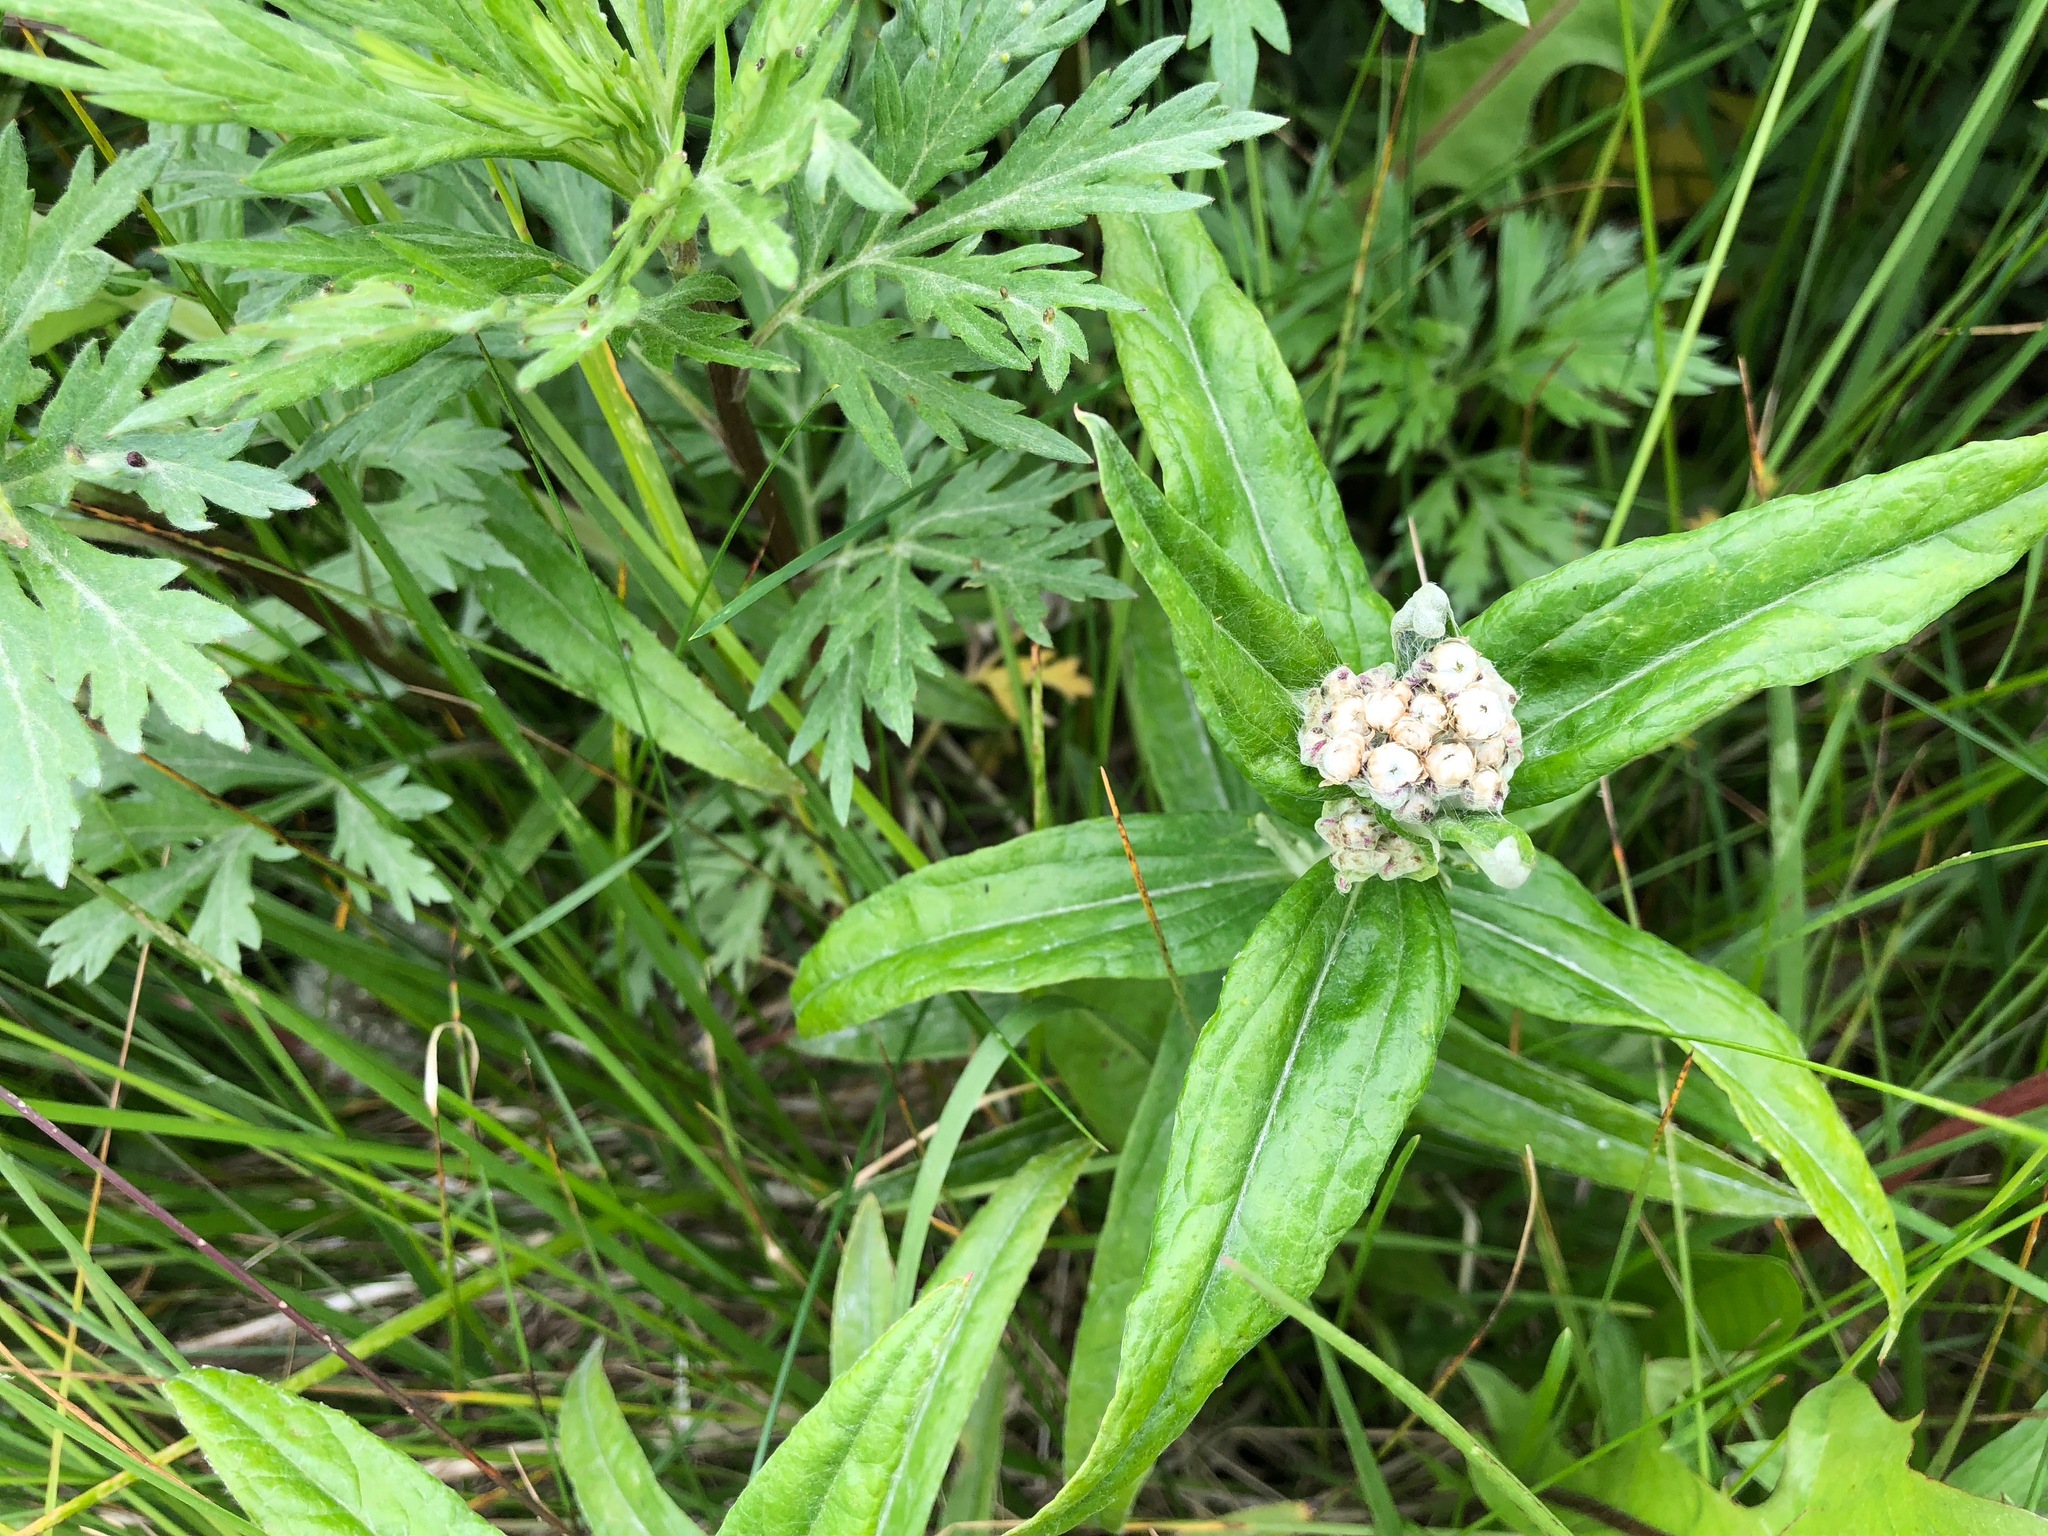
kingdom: Plantae
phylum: Tracheophyta
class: Magnoliopsida
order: Asterales
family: Asteraceae
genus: Anaphalis
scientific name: Anaphalis margaritacea
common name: Pearly everlasting
